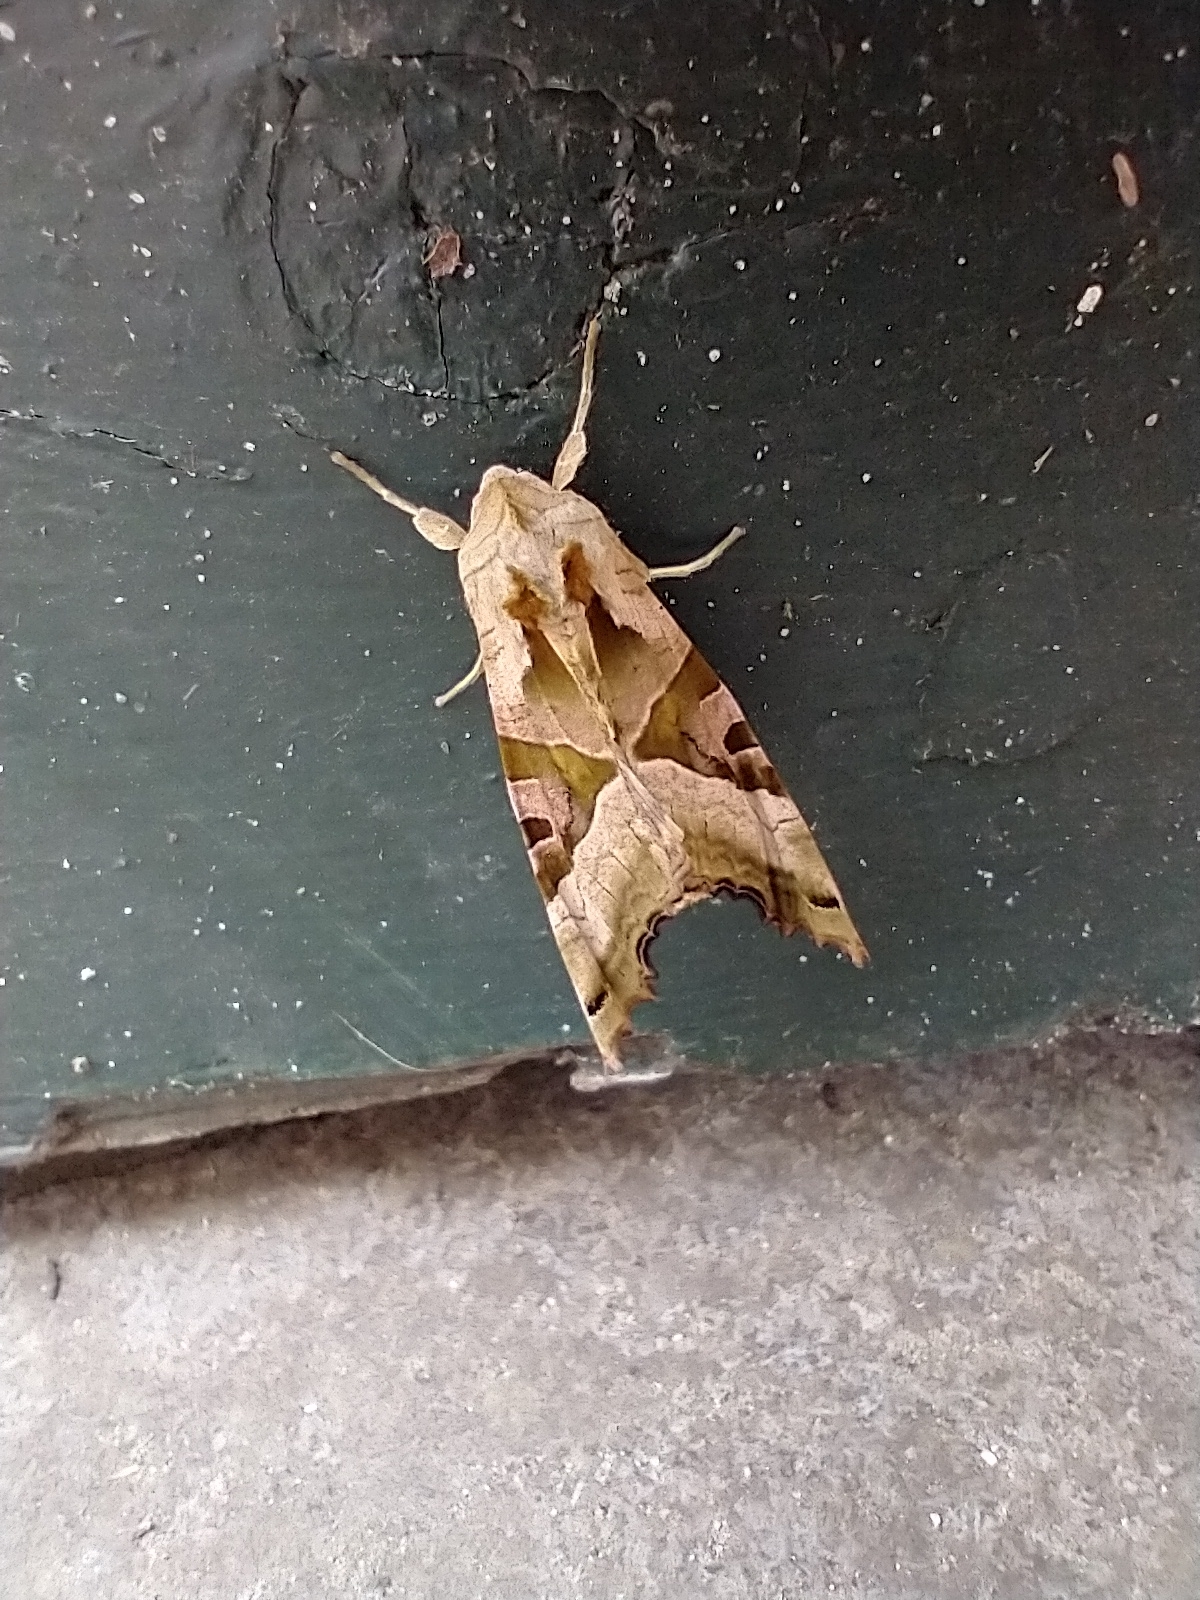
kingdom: Animalia
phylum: Arthropoda
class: Insecta
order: Lepidoptera
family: Noctuidae
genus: Phlogophora
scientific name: Phlogophora meticulosa
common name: Angle shades
